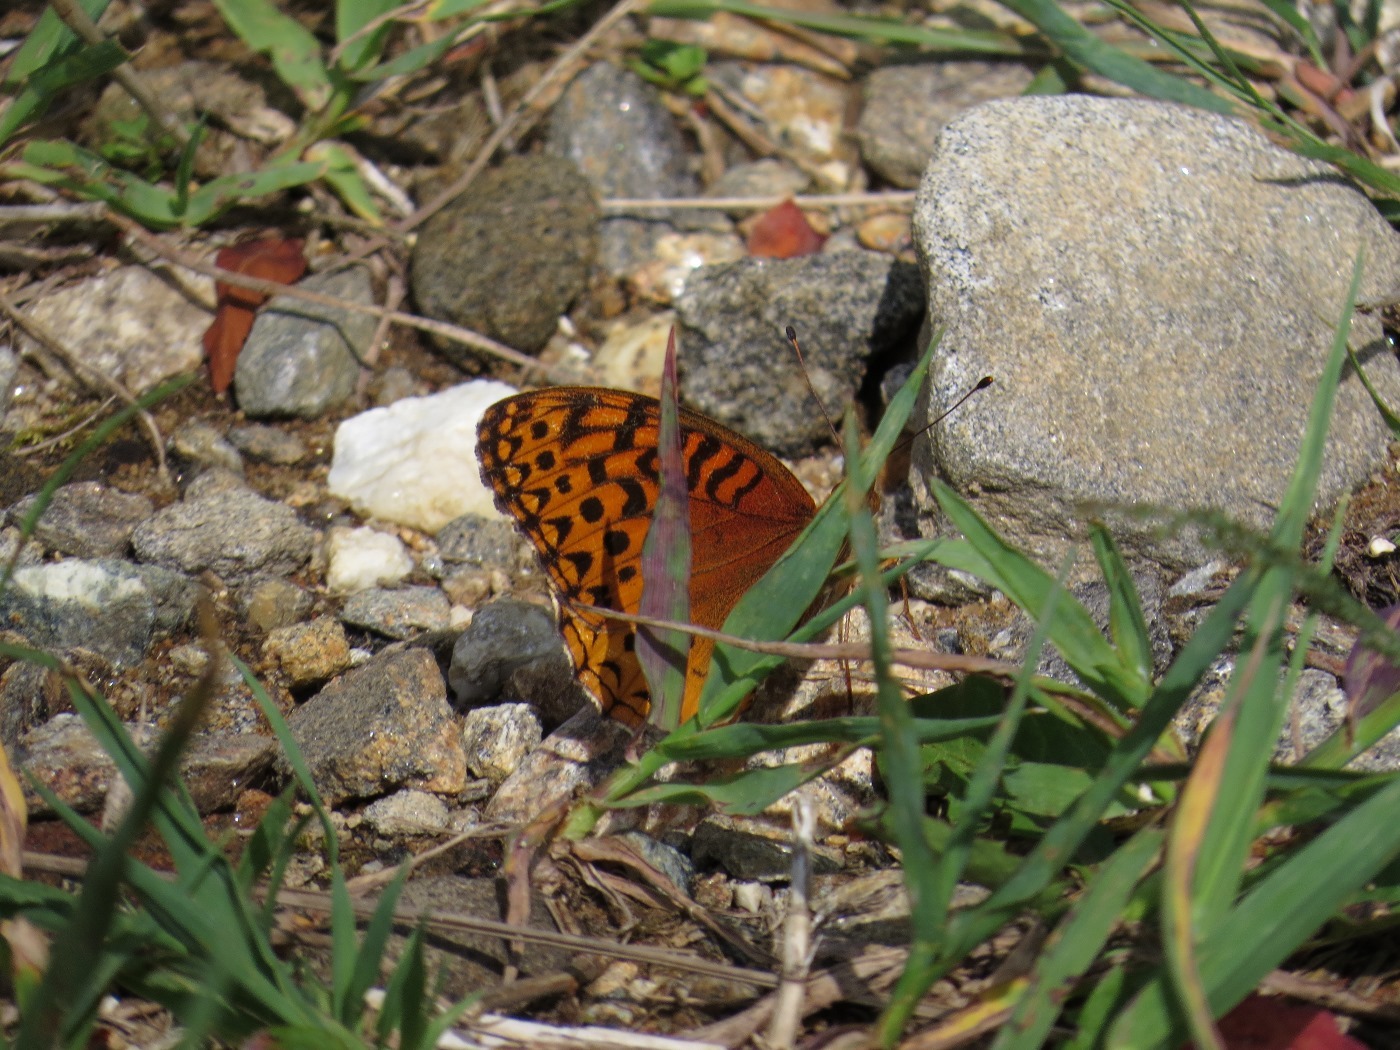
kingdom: Animalia
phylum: Arthropoda
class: Insecta
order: Lepidoptera
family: Nymphalidae
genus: Speyeria
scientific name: Speyeria cybele
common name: Great spangled fritillary
